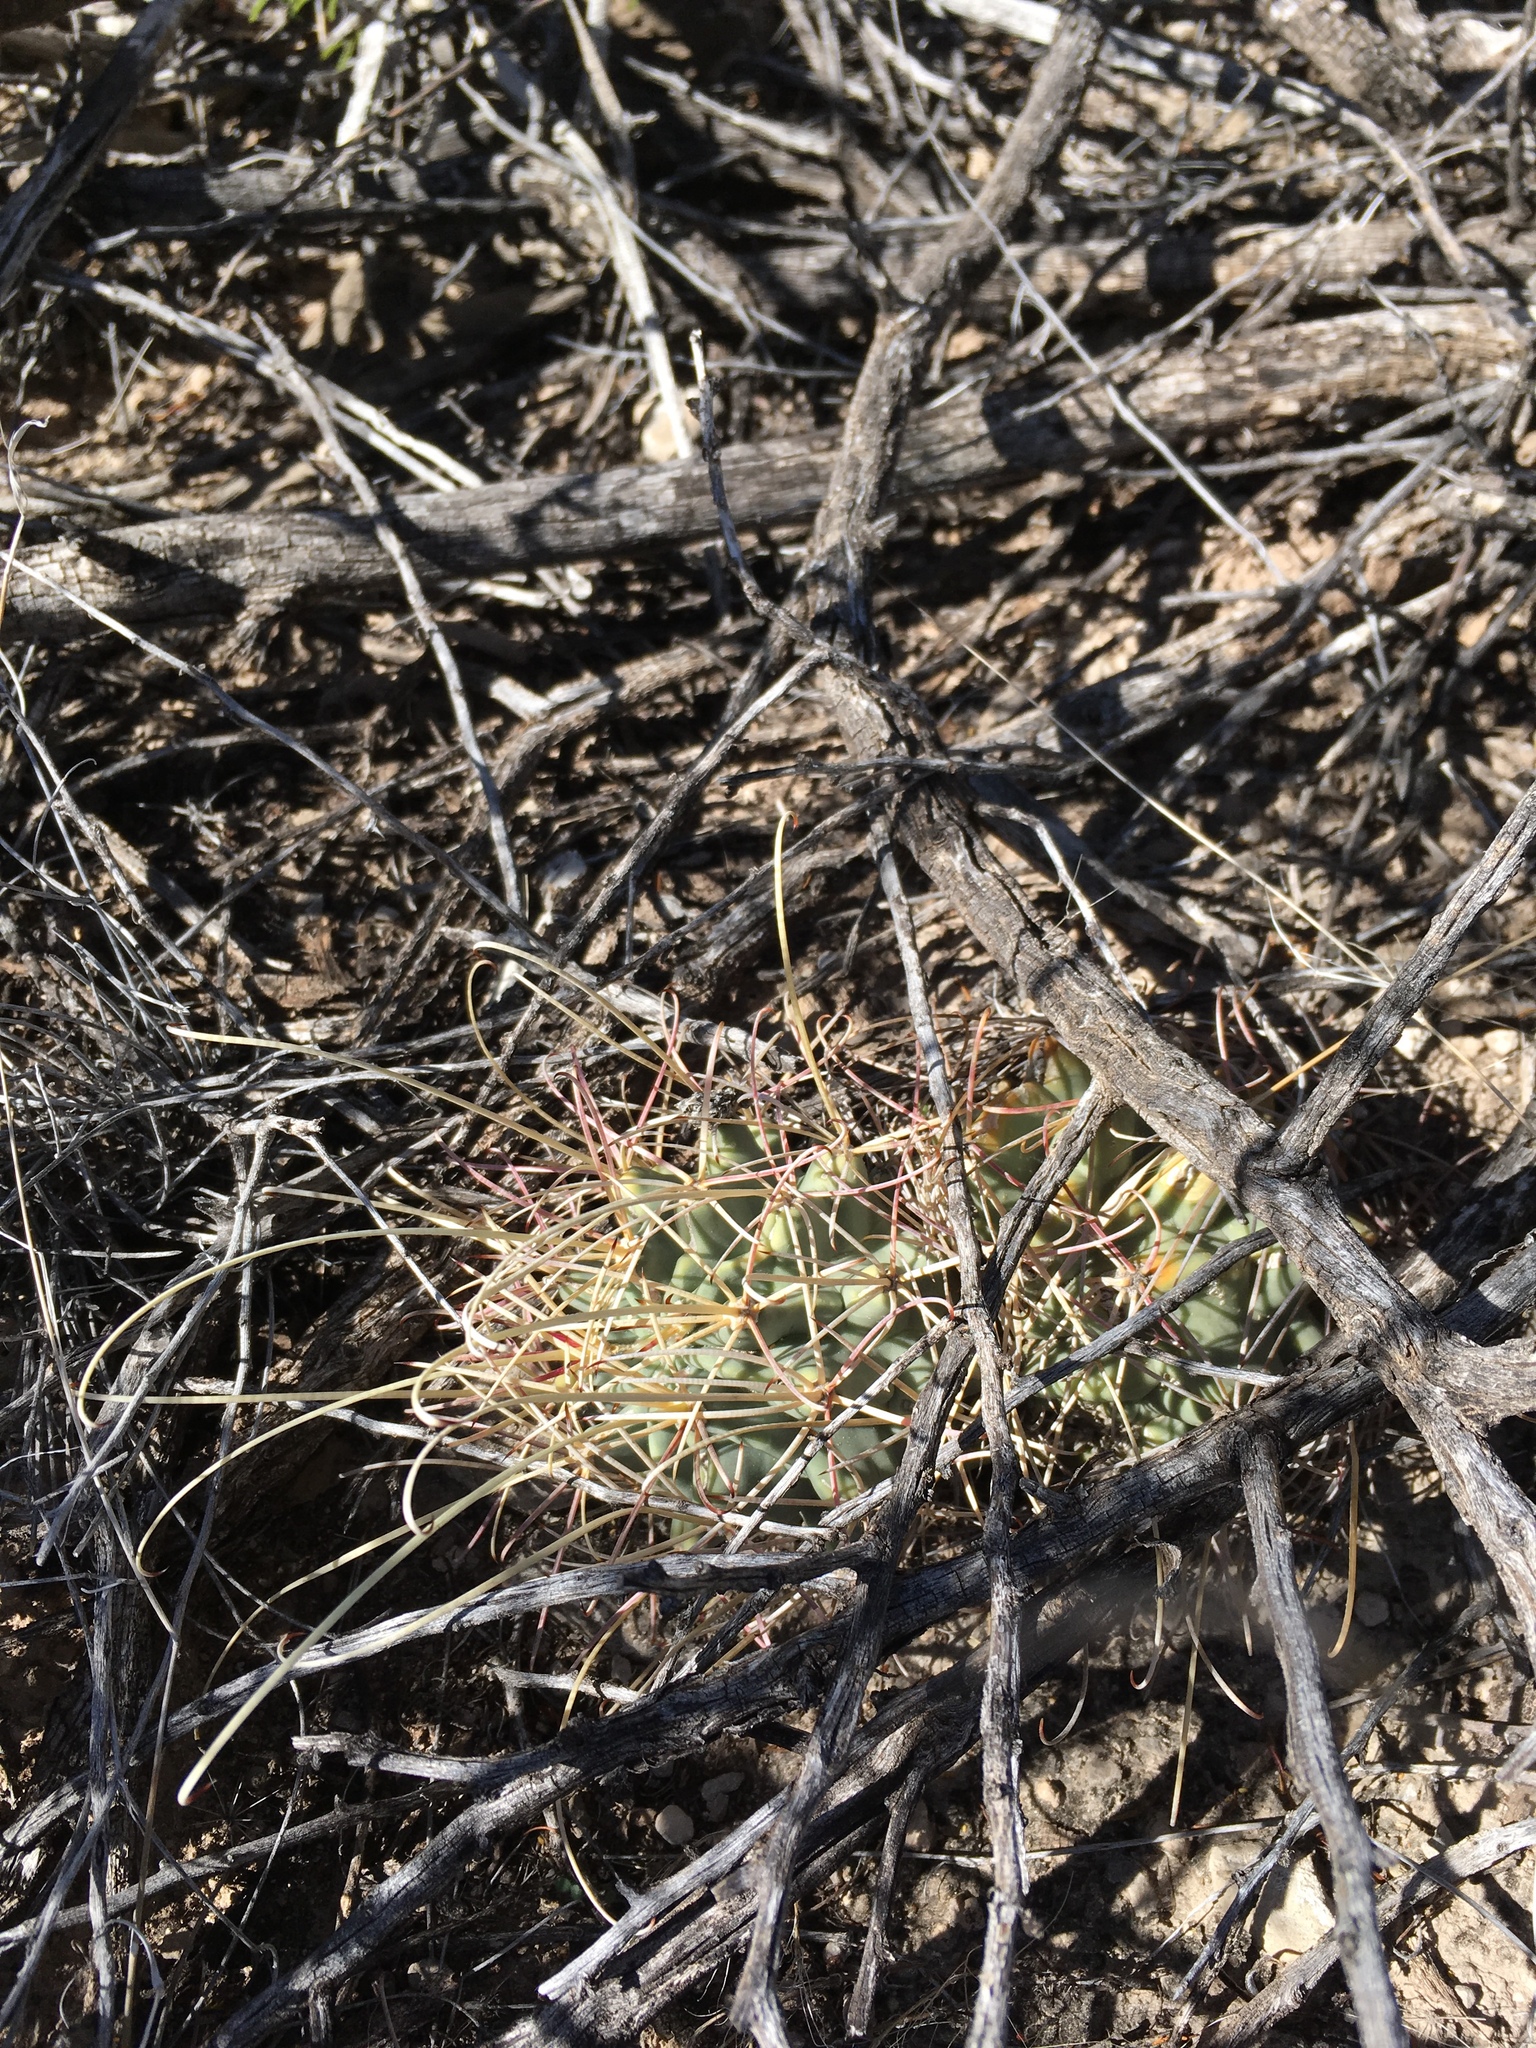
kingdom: Plantae
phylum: Tracheophyta
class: Magnoliopsida
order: Caryophyllales
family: Cactaceae
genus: Ferocactus
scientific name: Ferocactus uncinatus
